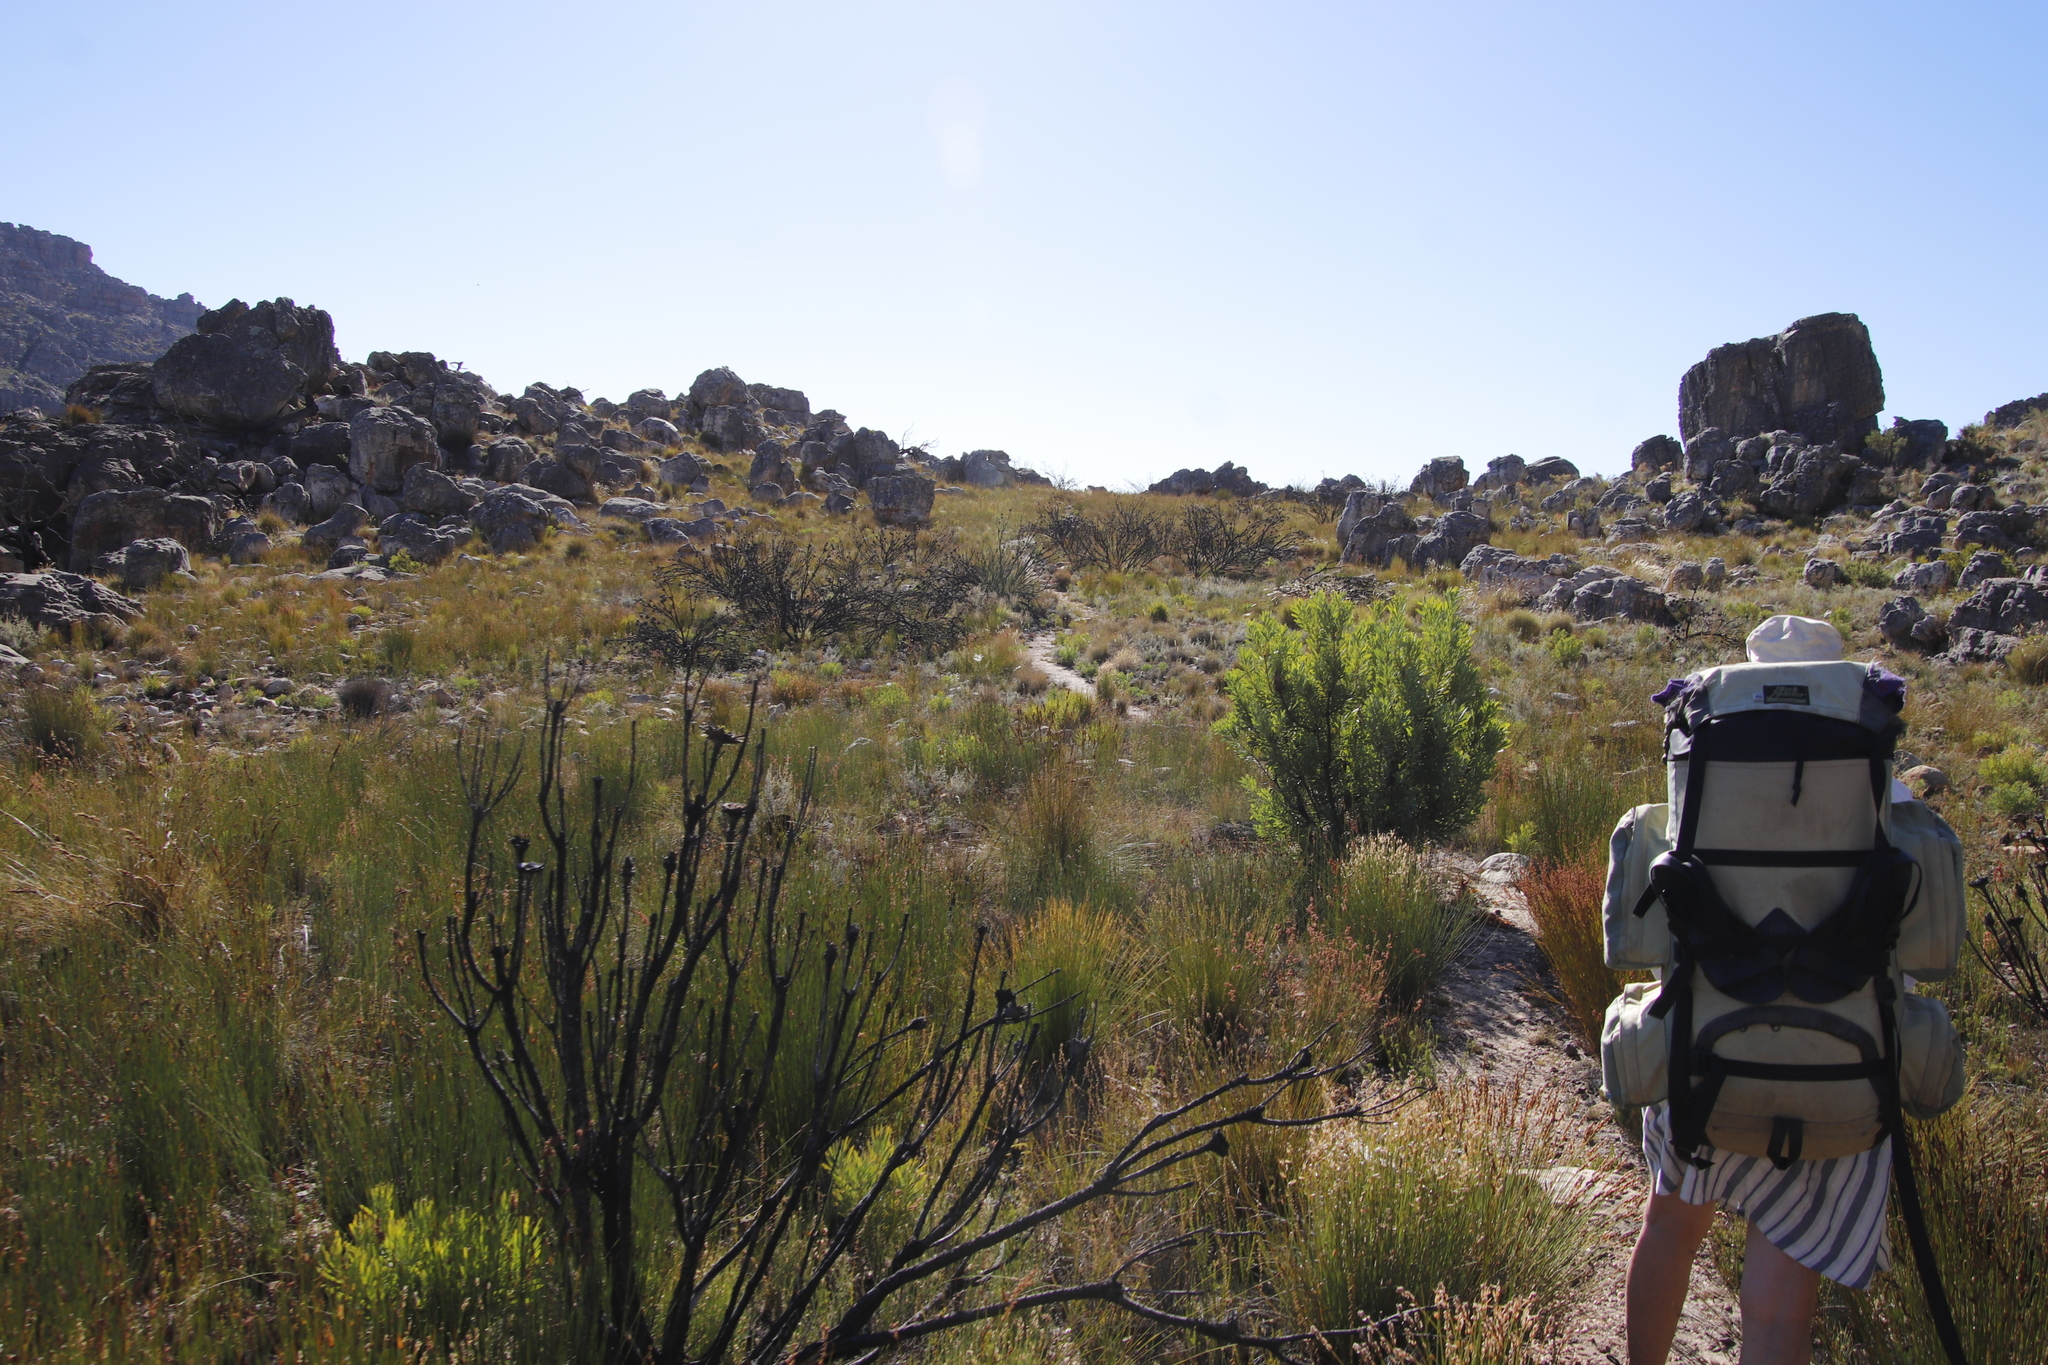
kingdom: Plantae
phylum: Tracheophyta
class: Magnoliopsida
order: Proteales
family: Proteaceae
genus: Protea
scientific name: Protea repens
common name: Sugarbush
